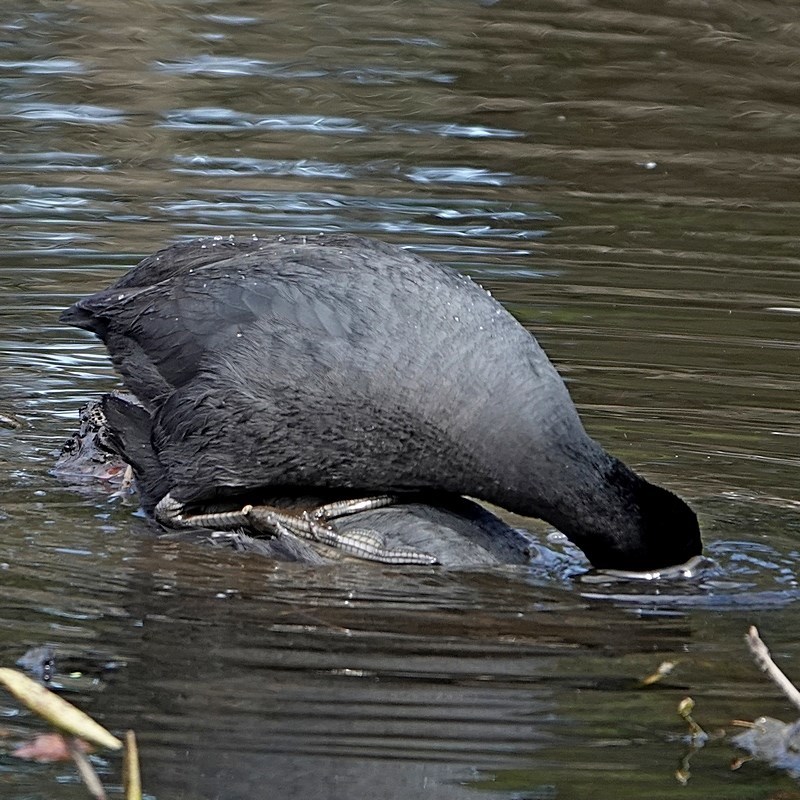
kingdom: Animalia
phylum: Chordata
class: Aves
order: Gruiformes
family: Rallidae
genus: Fulica
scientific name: Fulica atra
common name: Eurasian coot
